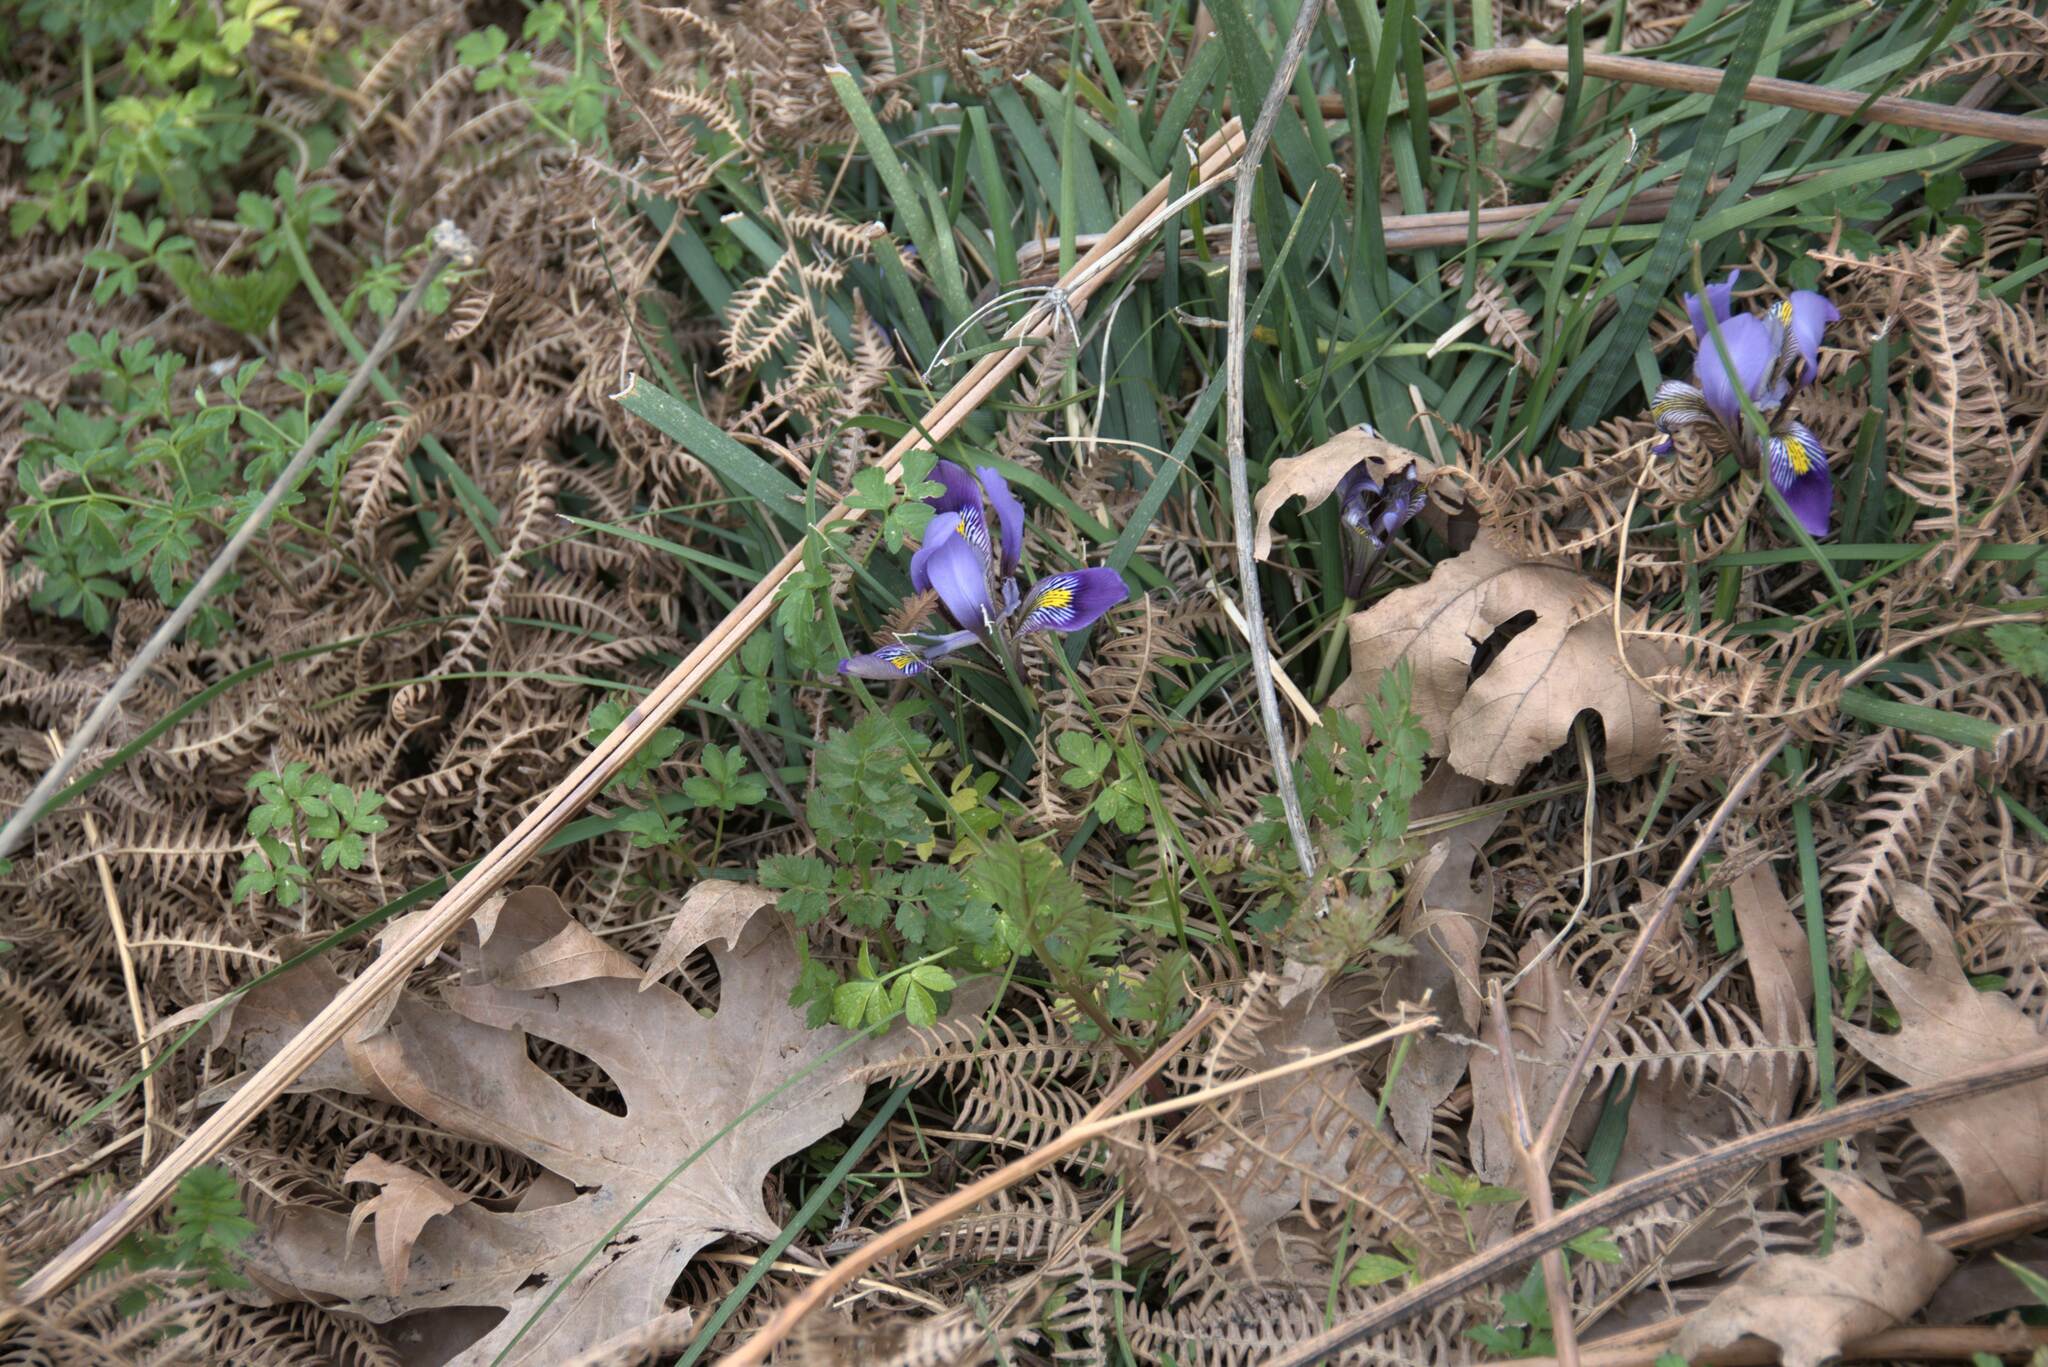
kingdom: Plantae
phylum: Tracheophyta
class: Liliopsida
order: Asparagales
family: Iridaceae
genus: Iris
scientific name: Iris unguicularis
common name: Algerian iris
